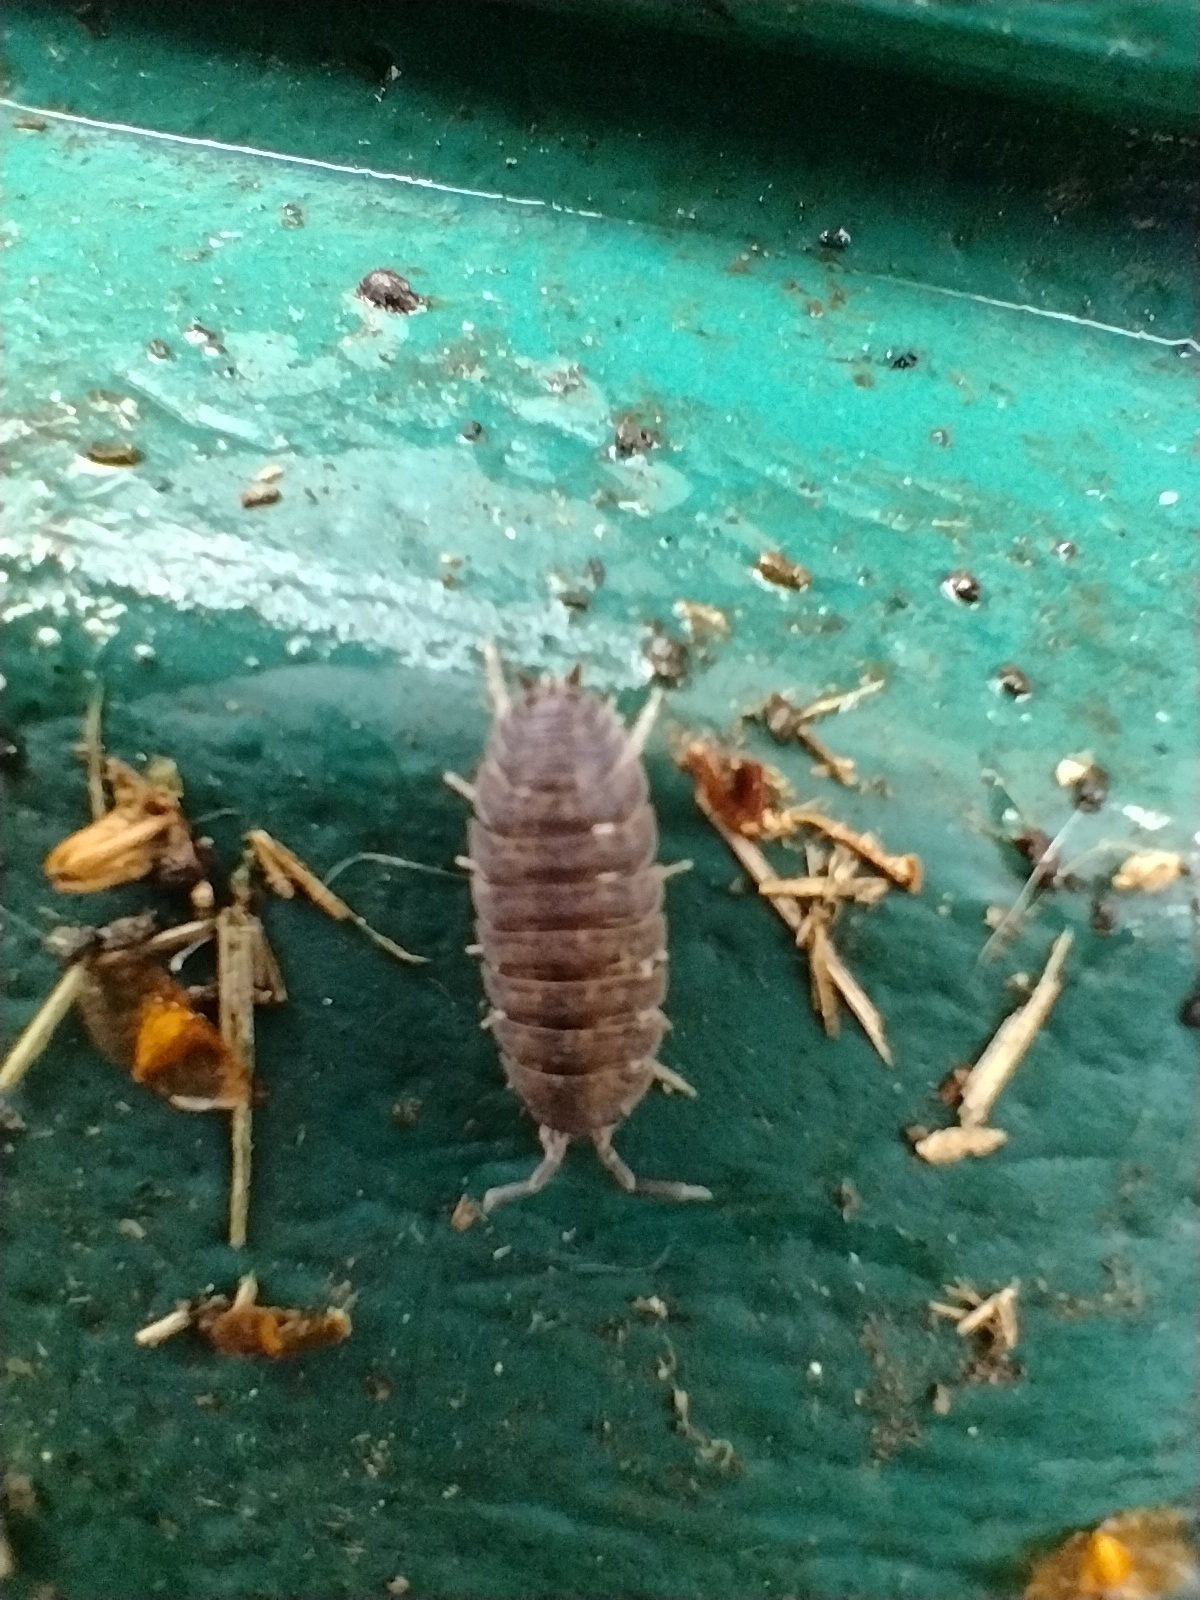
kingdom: Animalia
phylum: Arthropoda
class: Malacostraca
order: Isopoda
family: Porcellionidae
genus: Porcellio
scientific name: Porcellio scaber
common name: Common rough woodlouse
